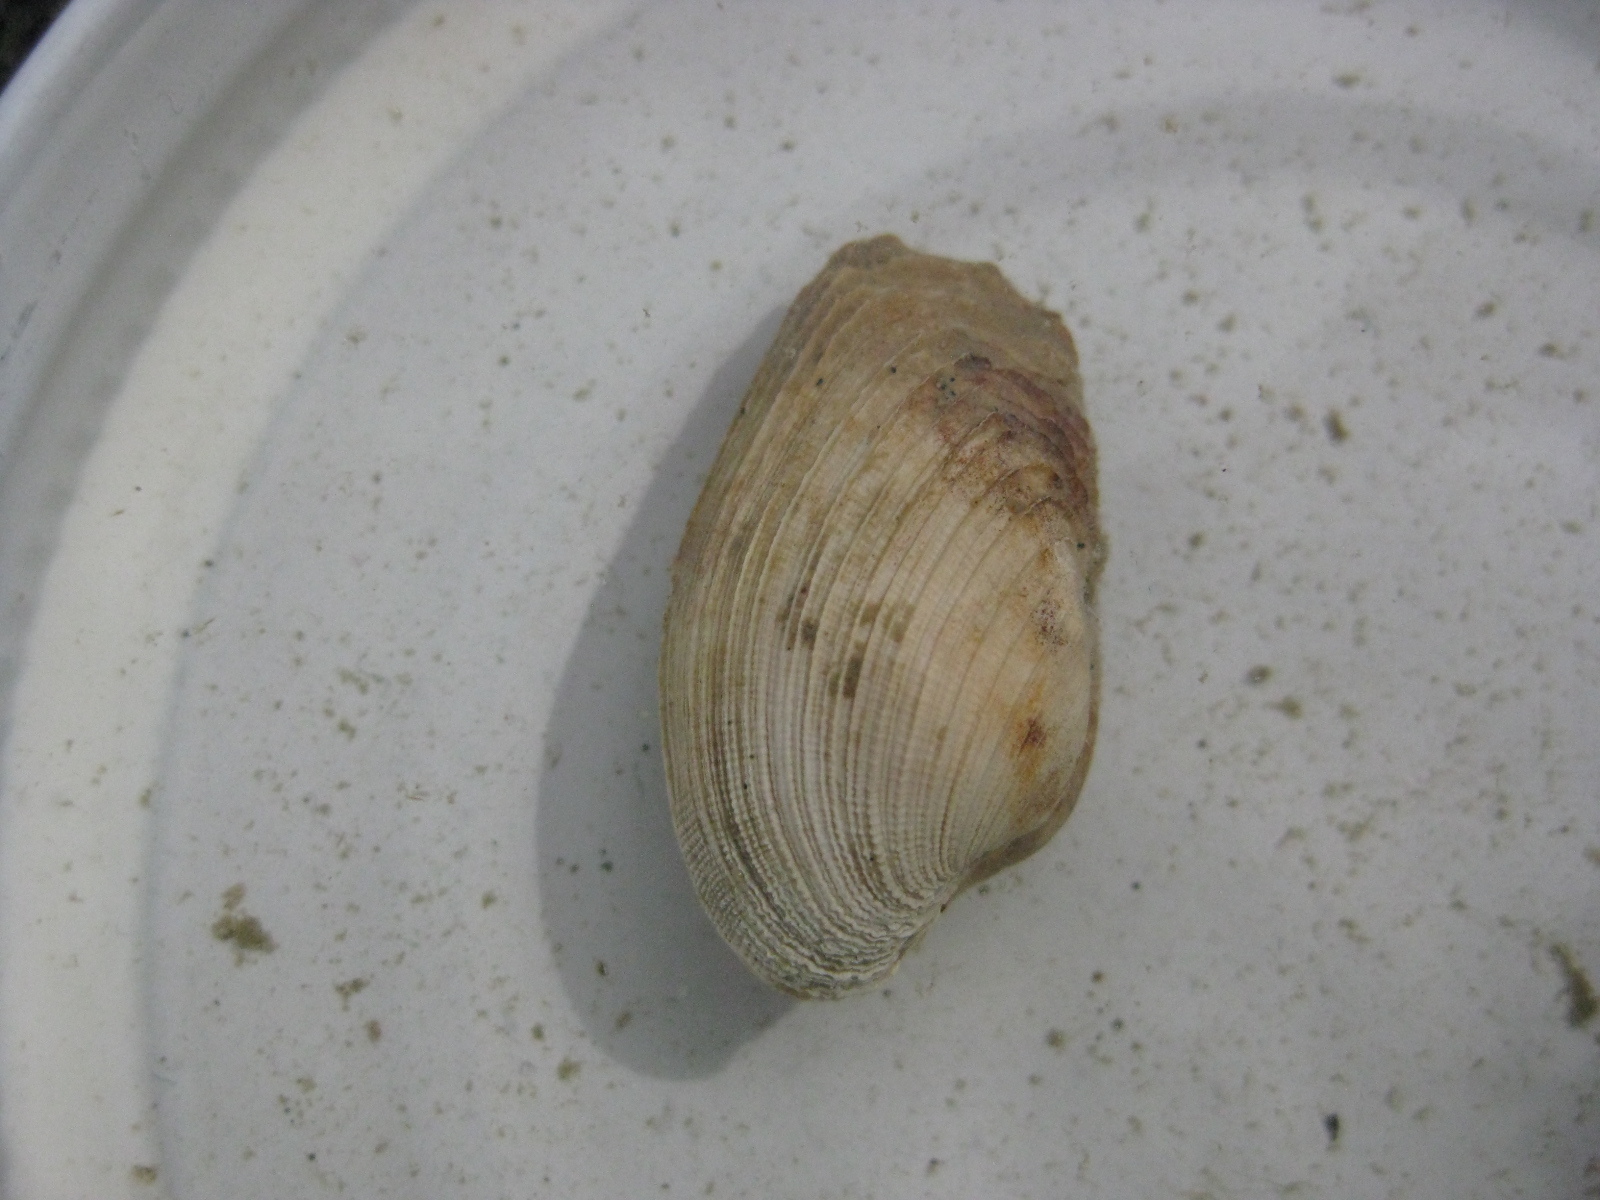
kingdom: Animalia
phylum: Mollusca
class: Bivalvia
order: Venerida
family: Veneridae
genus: Irus
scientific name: Irus elegans
